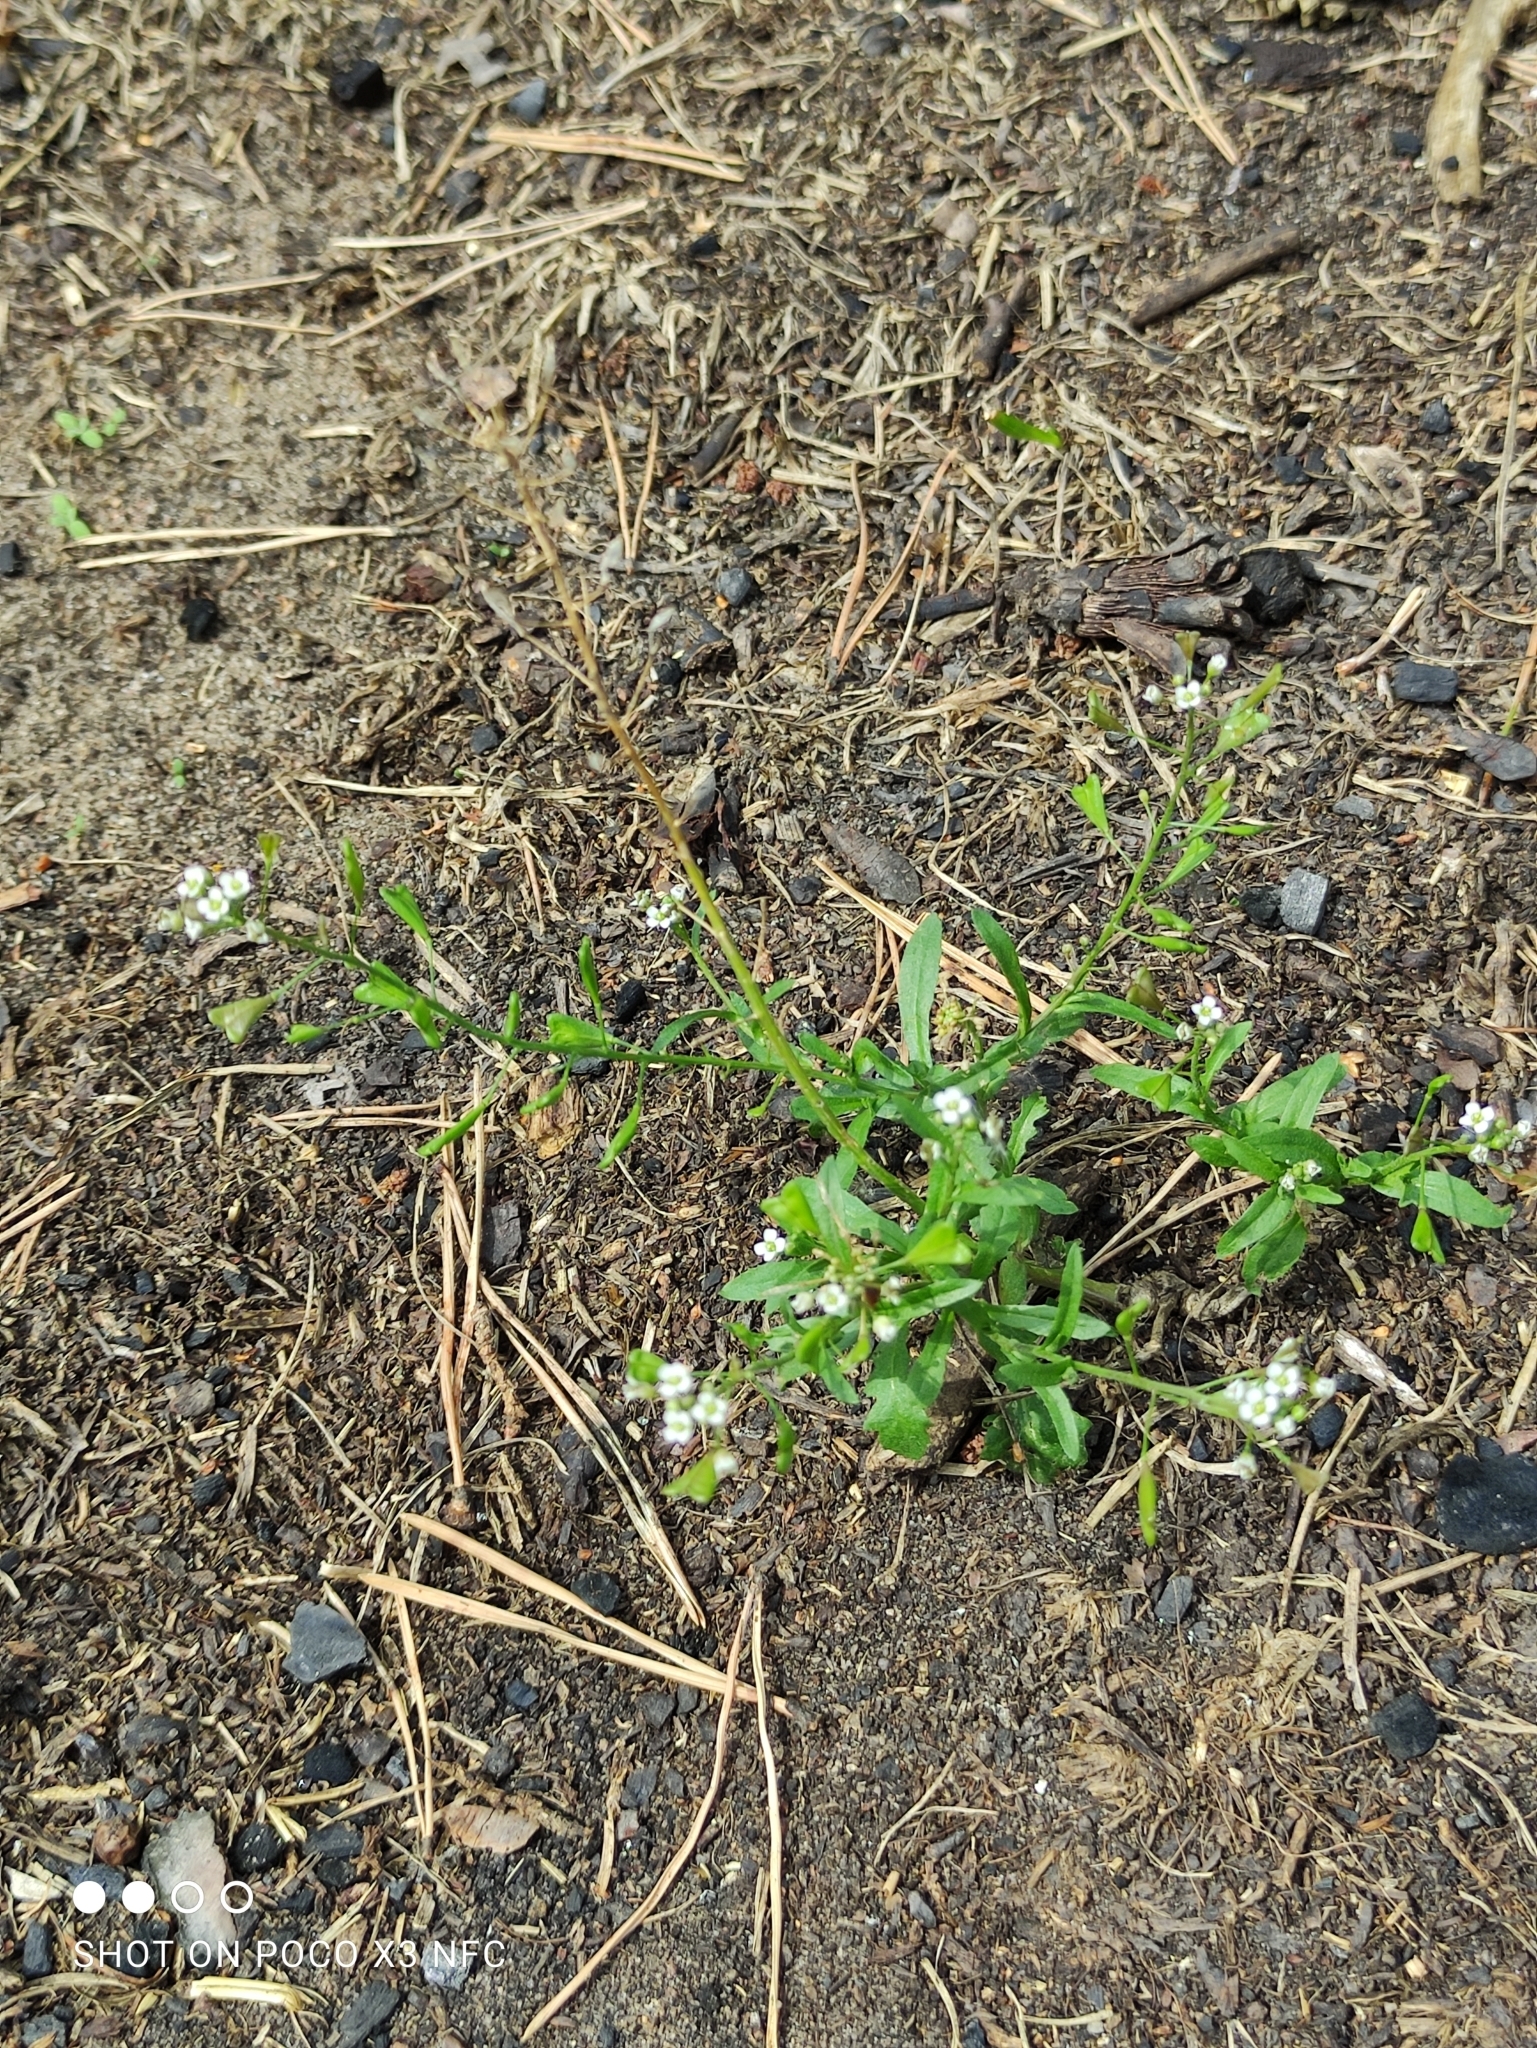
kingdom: Plantae
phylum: Tracheophyta
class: Magnoliopsida
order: Brassicales
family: Brassicaceae
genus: Capsella
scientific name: Capsella bursa-pastoris
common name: Shepherd's purse
